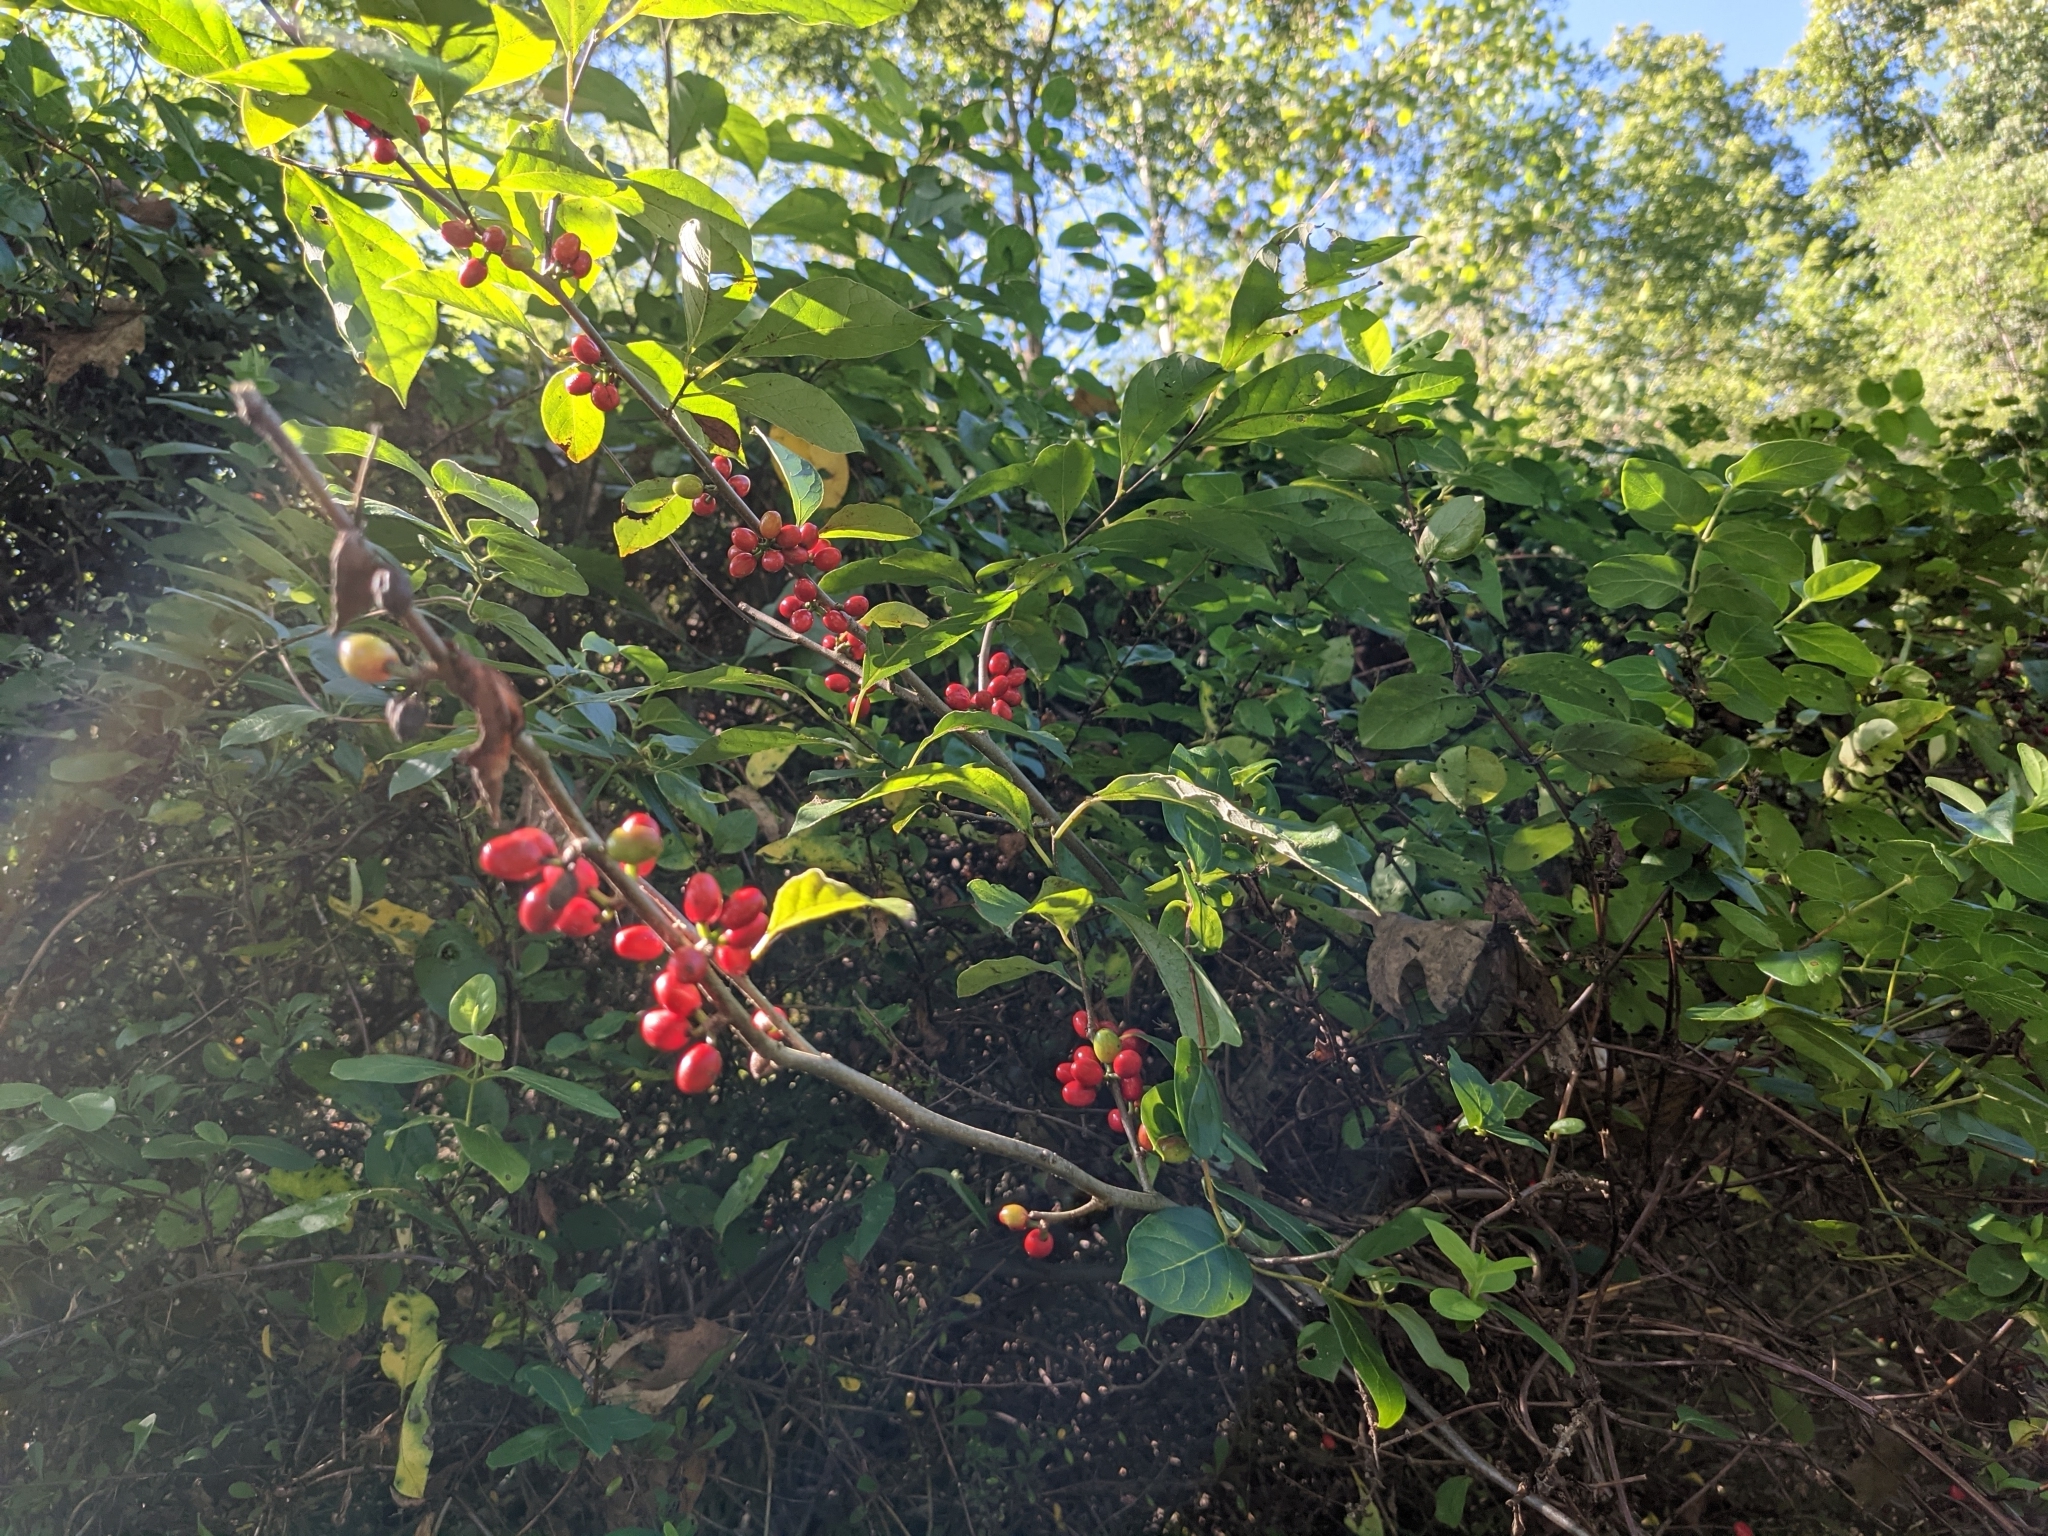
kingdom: Plantae
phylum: Tracheophyta
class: Magnoliopsida
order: Laurales
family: Lauraceae
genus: Lindera
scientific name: Lindera benzoin
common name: Spicebush
